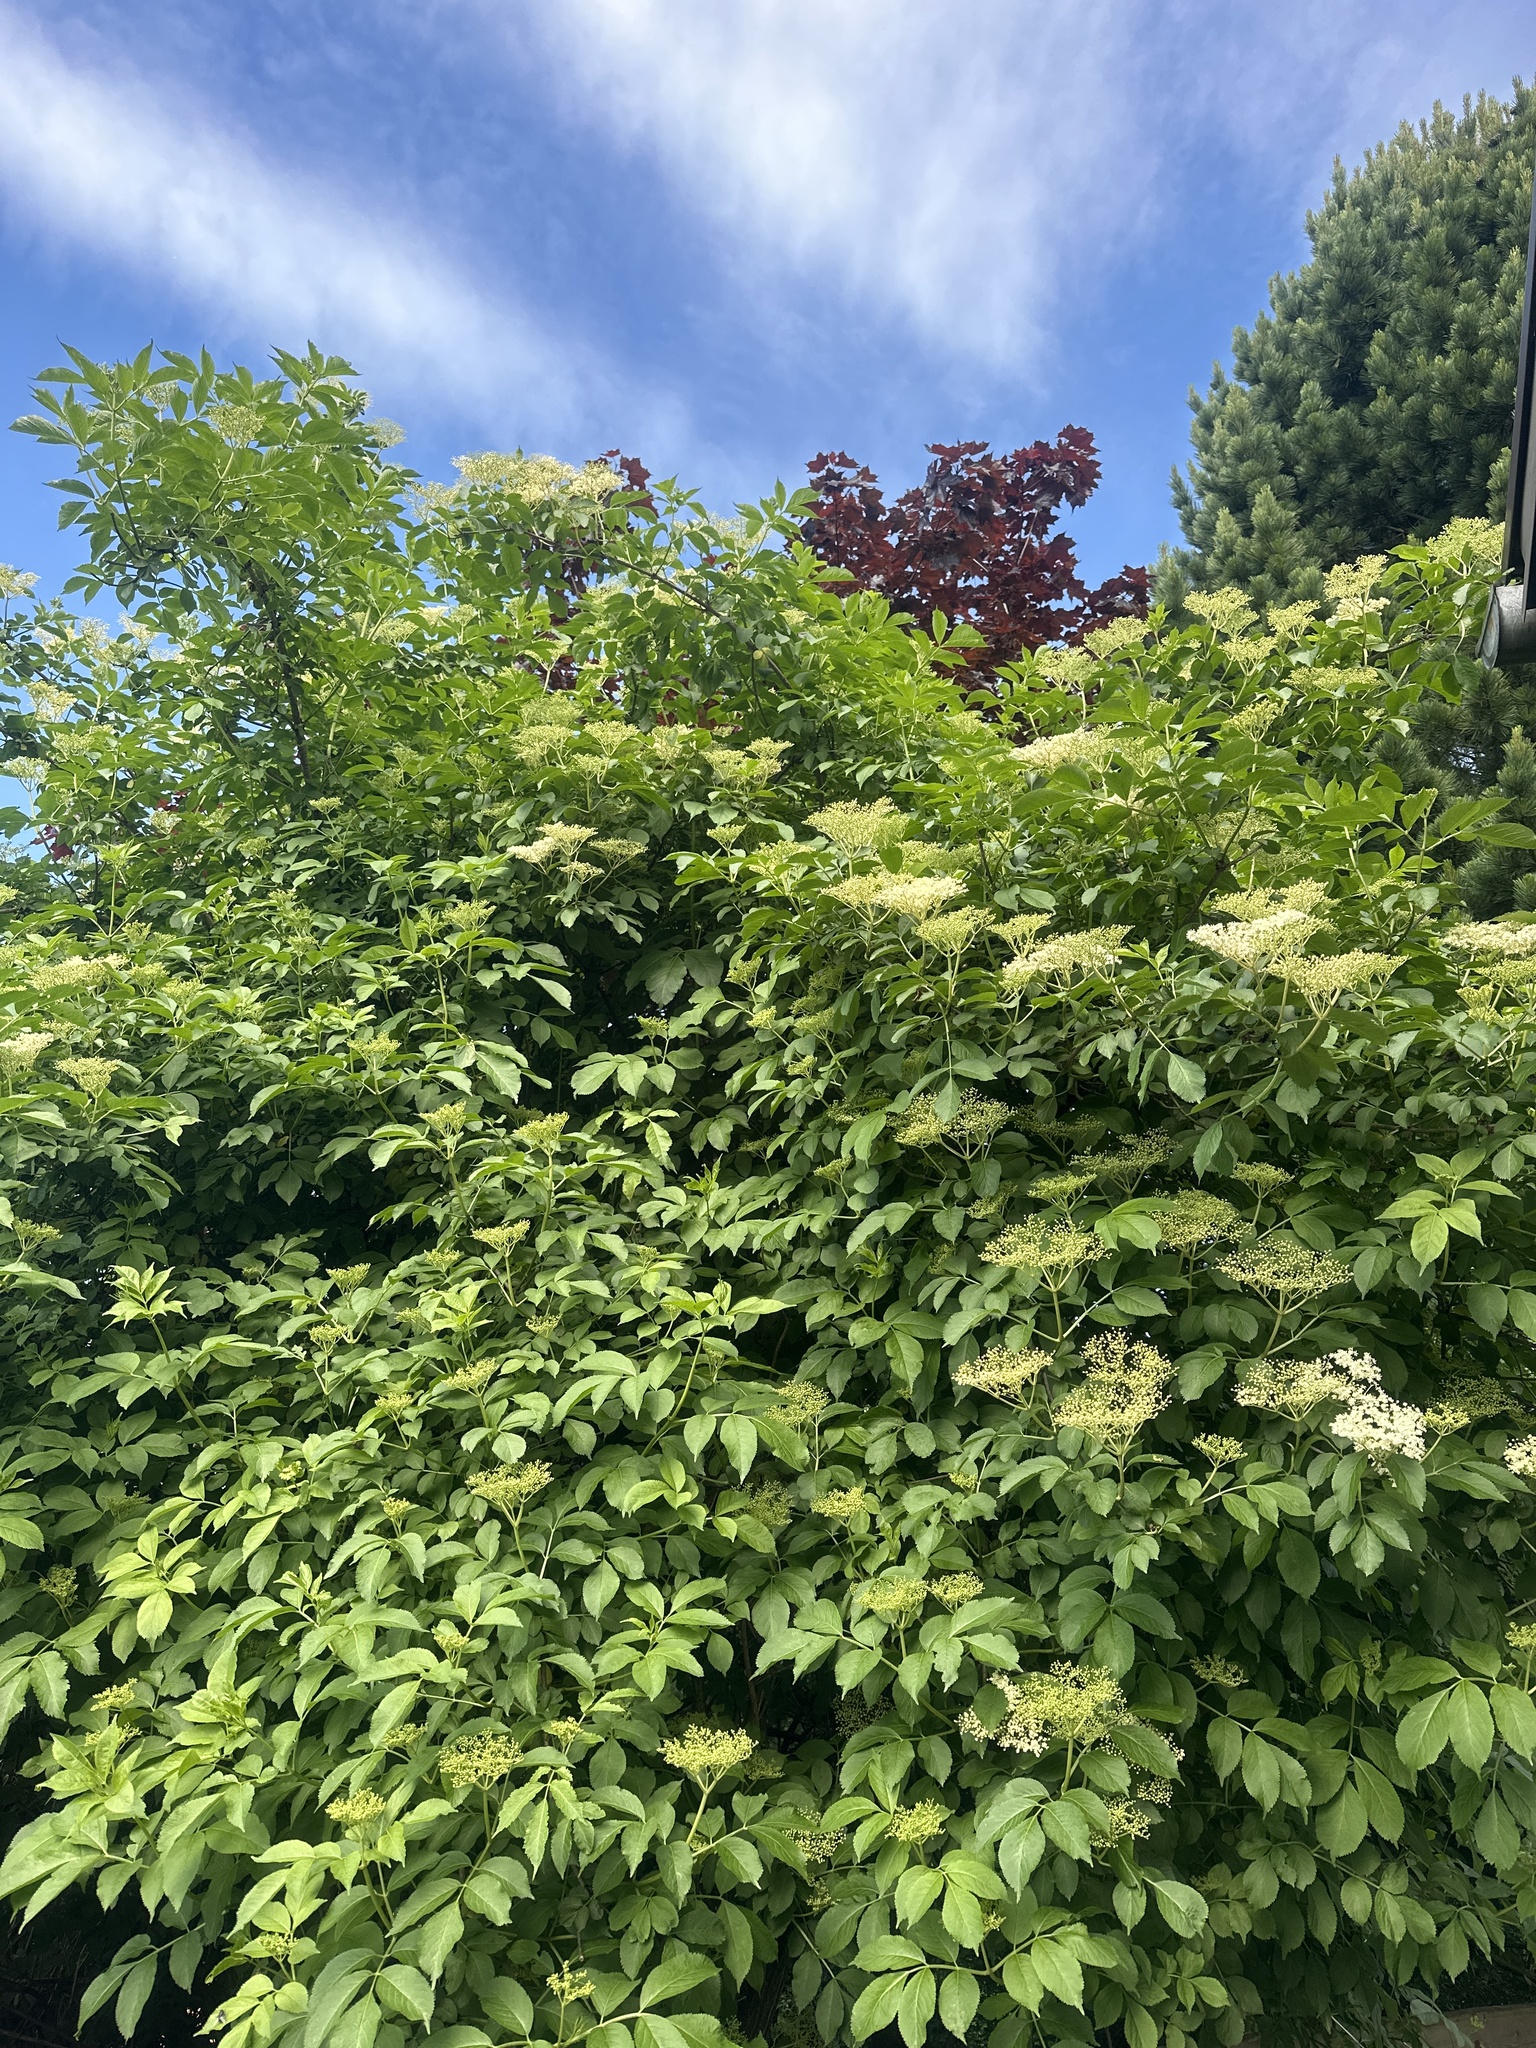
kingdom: Plantae
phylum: Tracheophyta
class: Magnoliopsida
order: Dipsacales
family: Viburnaceae
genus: Sambucus
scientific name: Sambucus nigra
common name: Elder
